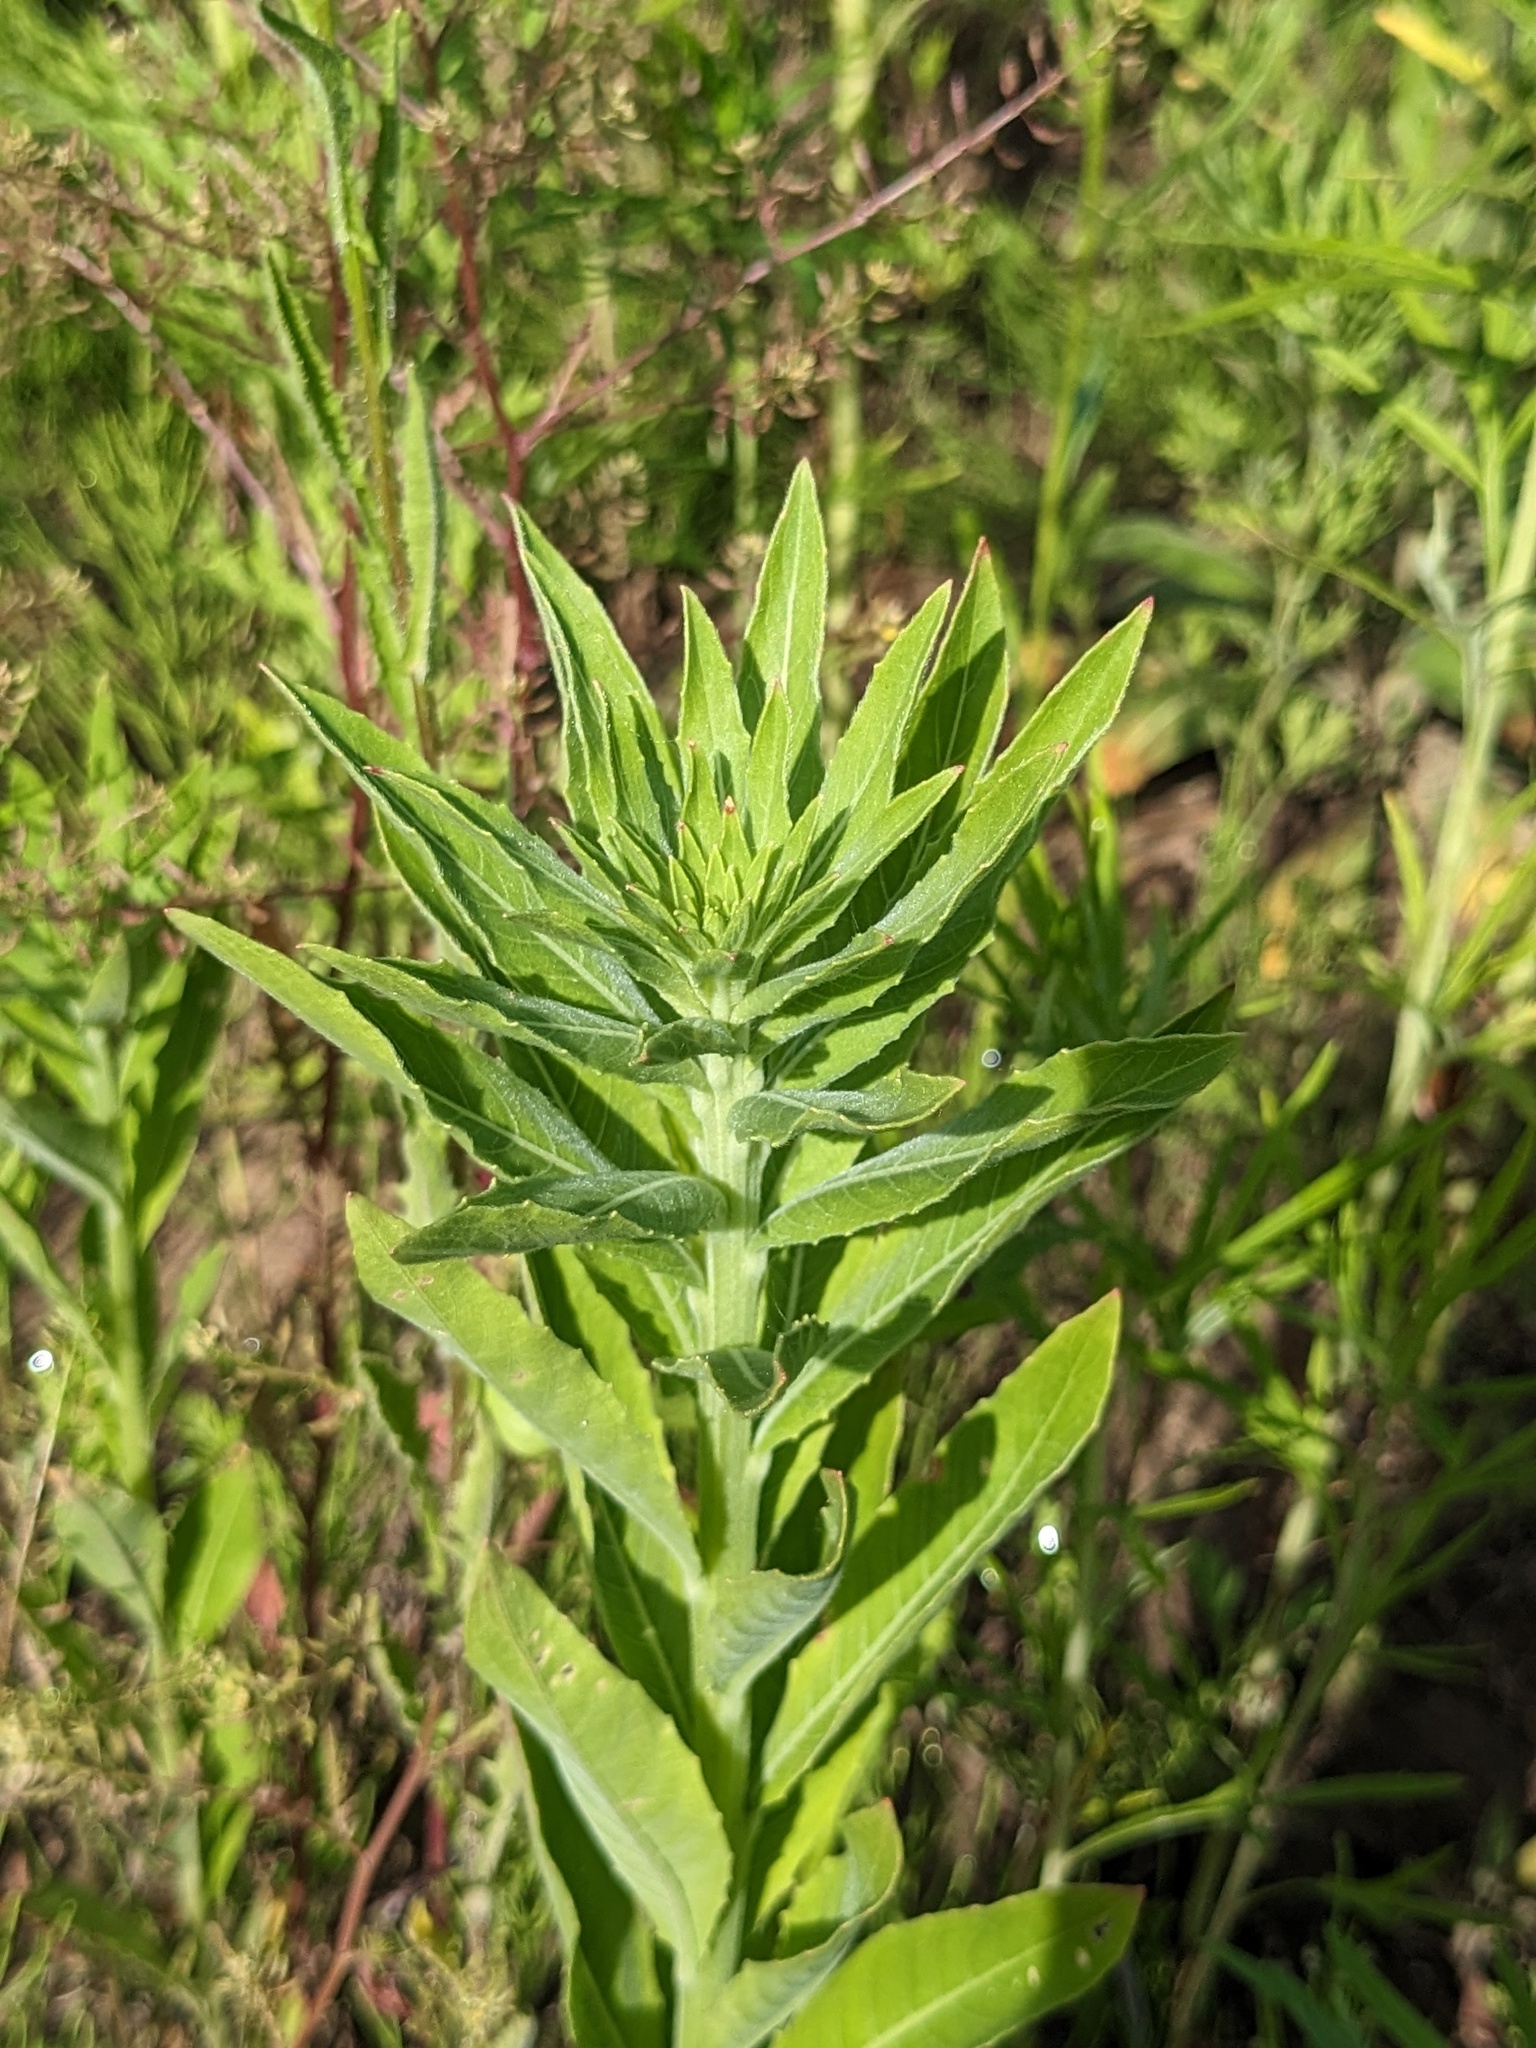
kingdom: Plantae
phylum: Tracheophyta
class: Magnoliopsida
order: Myrtales
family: Onagraceae
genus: Oenothera
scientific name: Oenothera villosa
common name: Hairy evening-primrose
